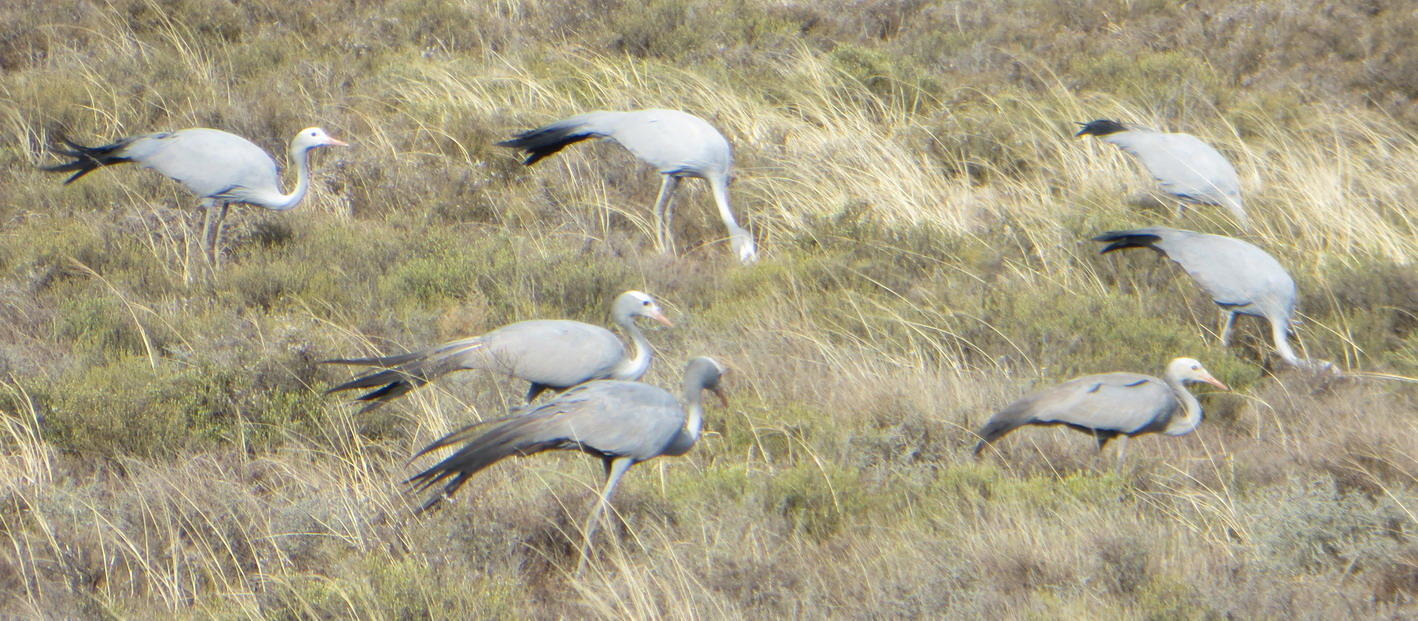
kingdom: Animalia
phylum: Chordata
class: Aves
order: Gruiformes
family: Gruidae
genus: Anthropoides
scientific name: Anthropoides paradiseus
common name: Blue crane
